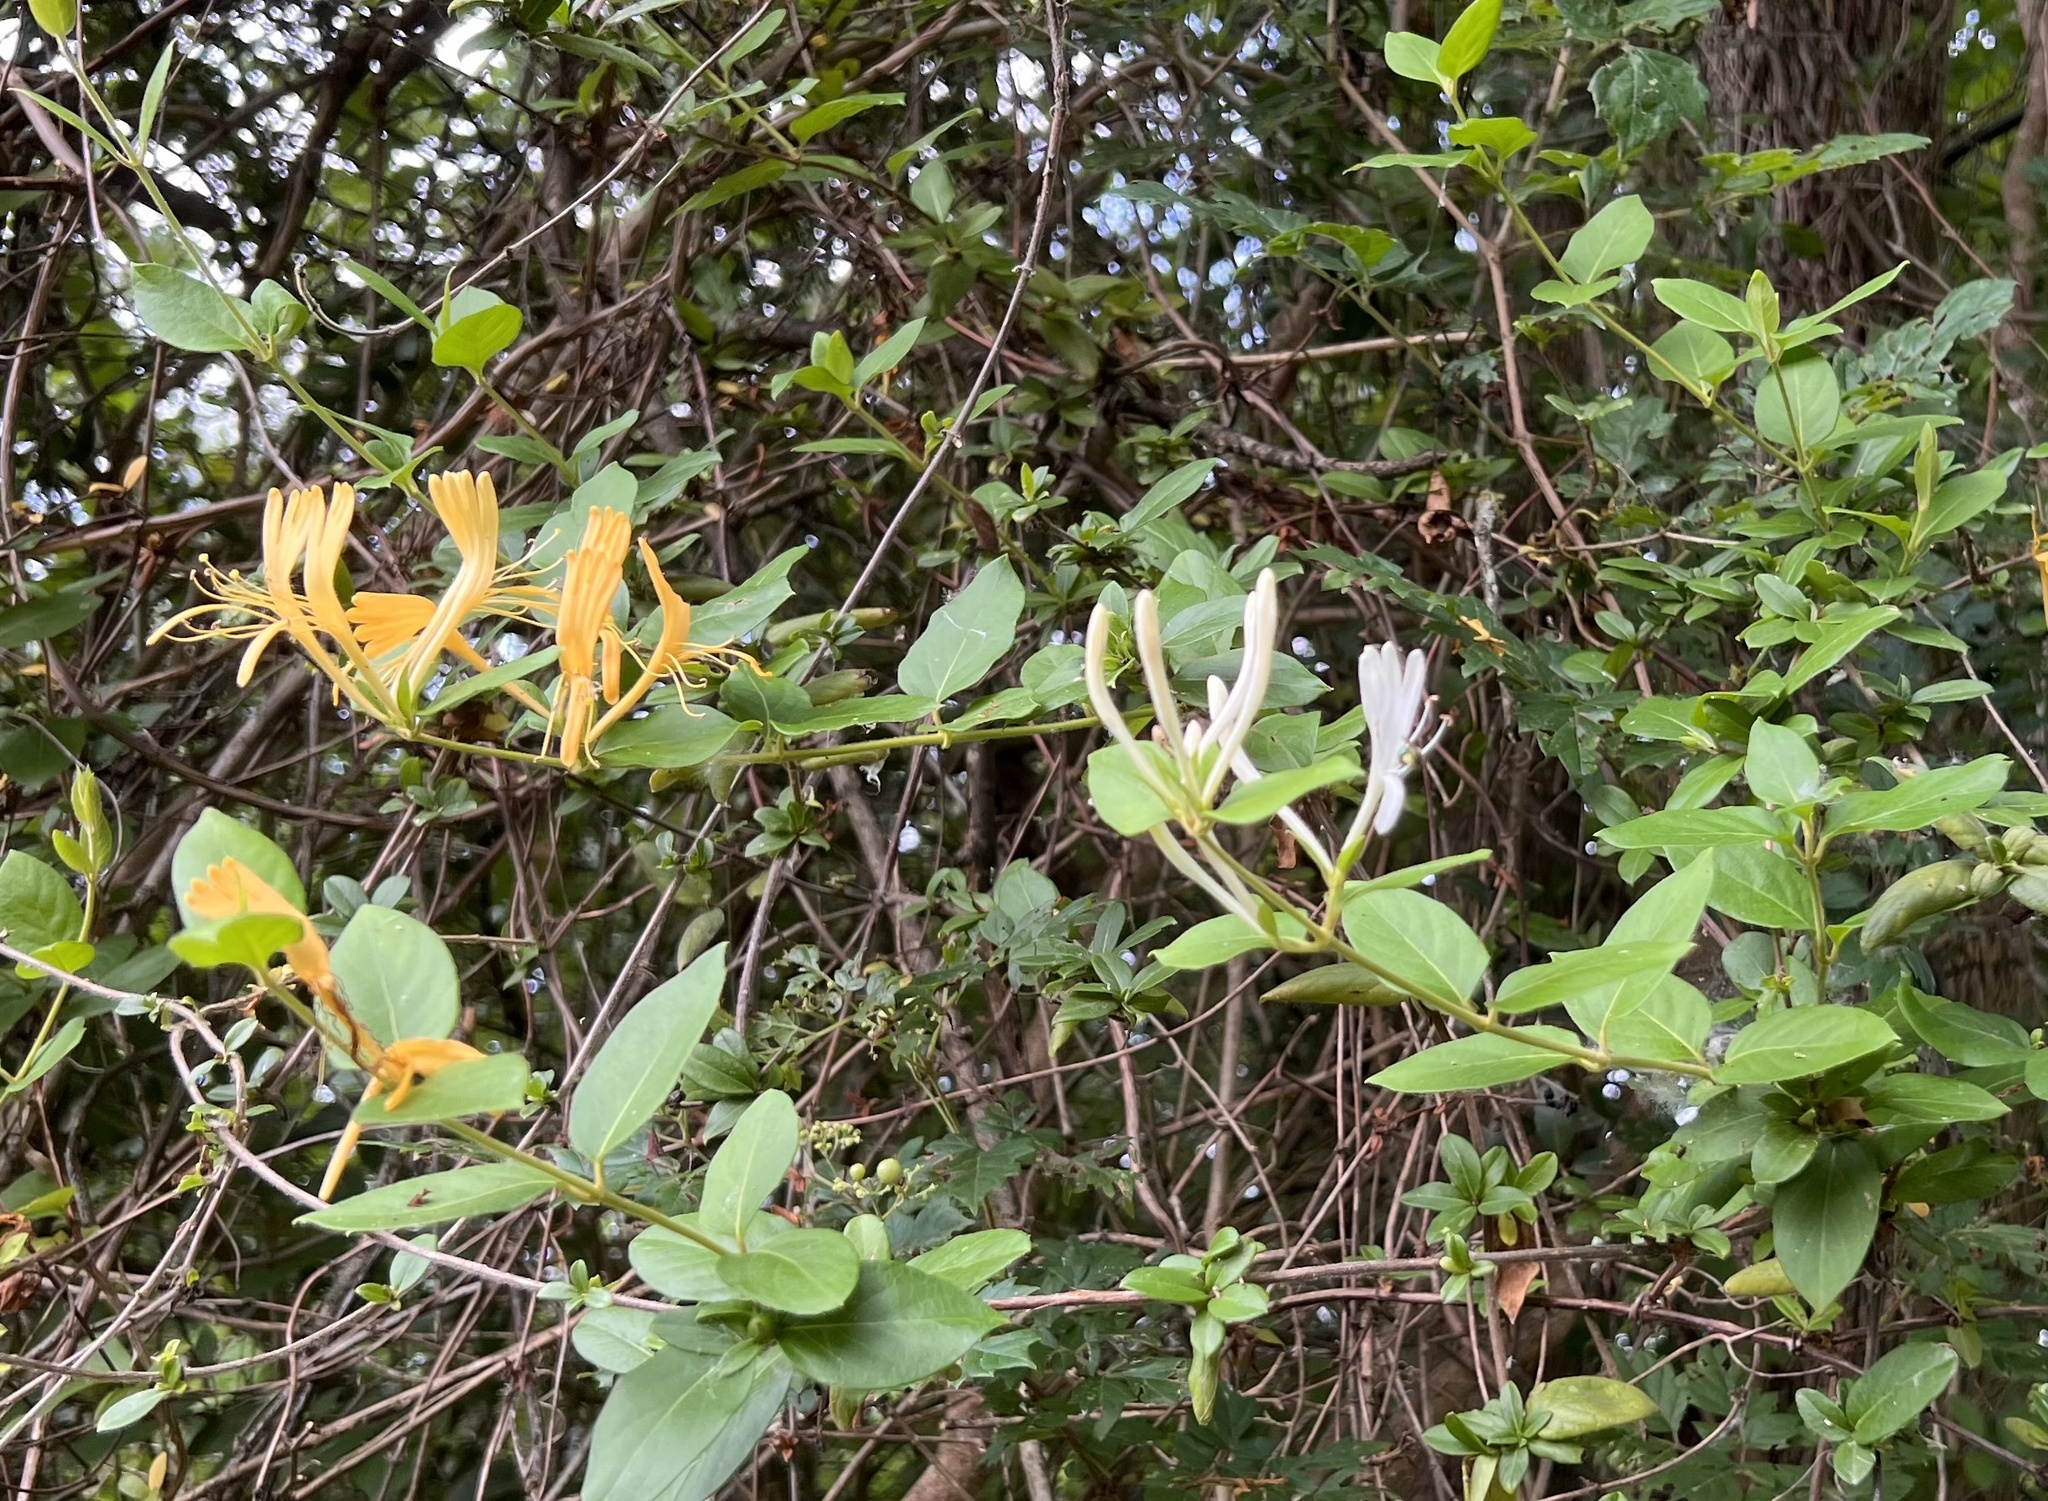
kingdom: Plantae
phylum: Tracheophyta
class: Magnoliopsida
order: Dipsacales
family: Caprifoliaceae
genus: Lonicera
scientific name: Lonicera japonica
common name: Japanese honeysuckle
